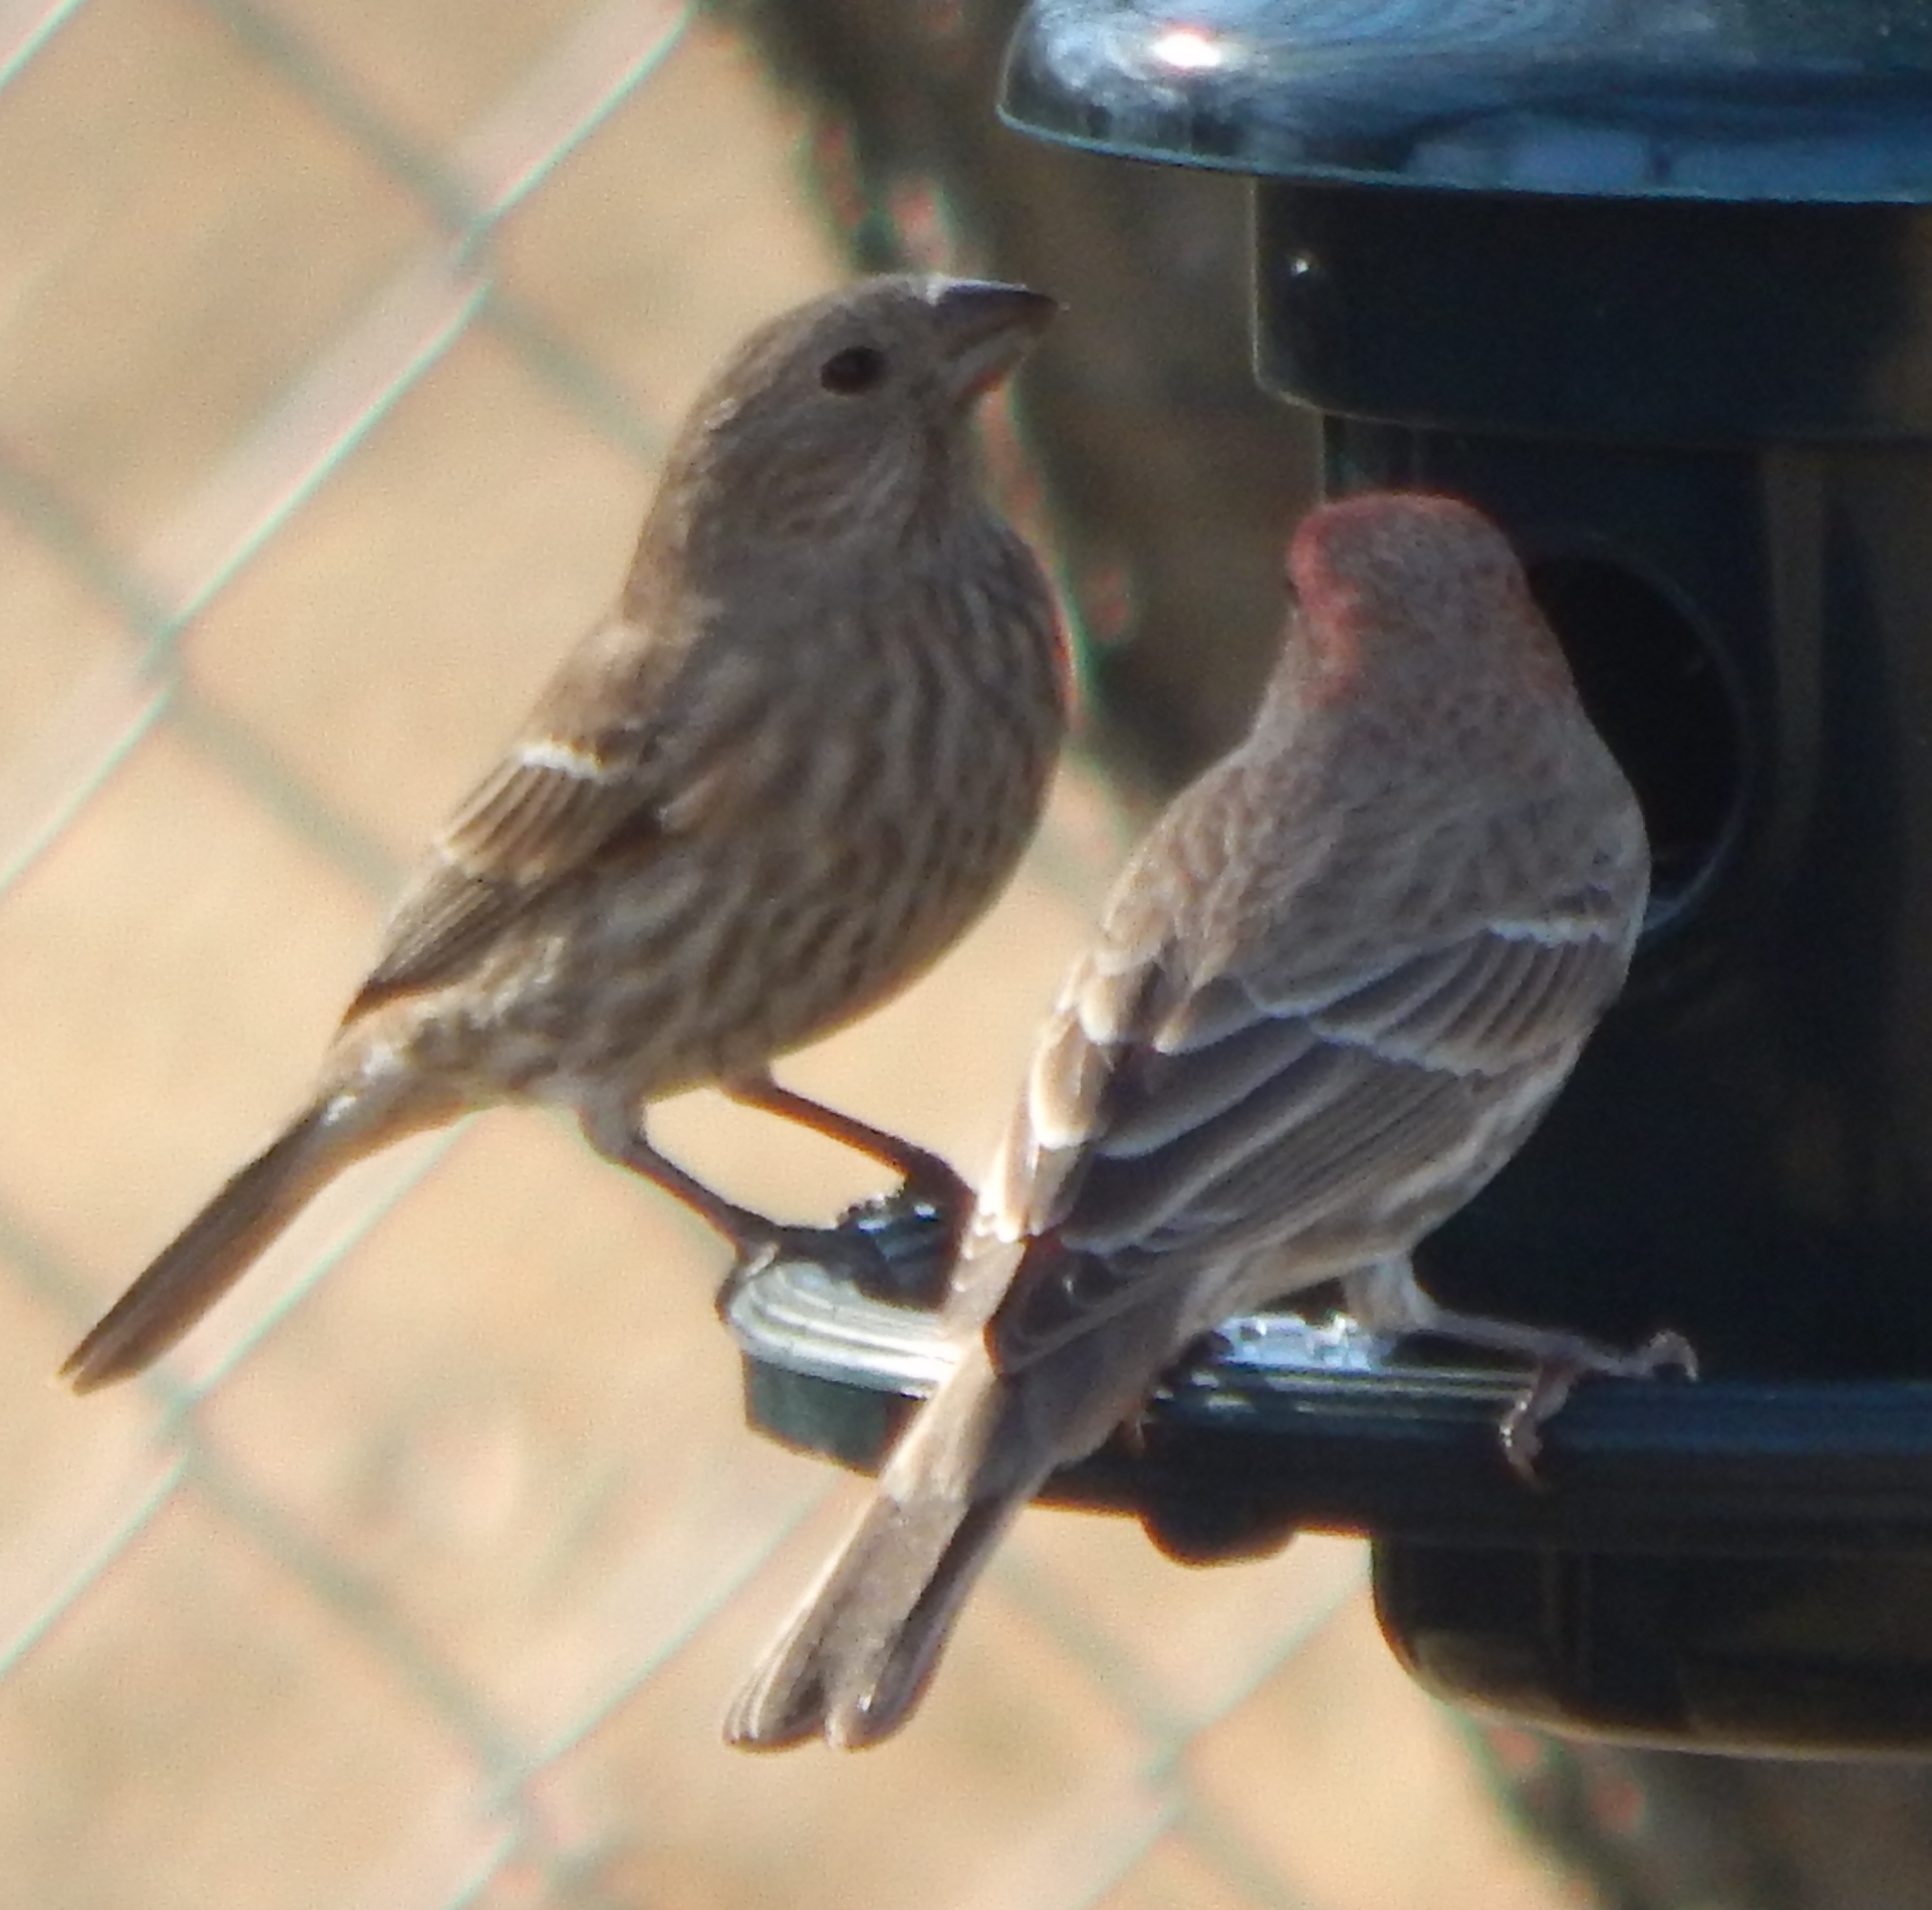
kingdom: Animalia
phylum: Chordata
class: Aves
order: Passeriformes
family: Fringillidae
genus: Haemorhous
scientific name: Haemorhous mexicanus
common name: House finch
